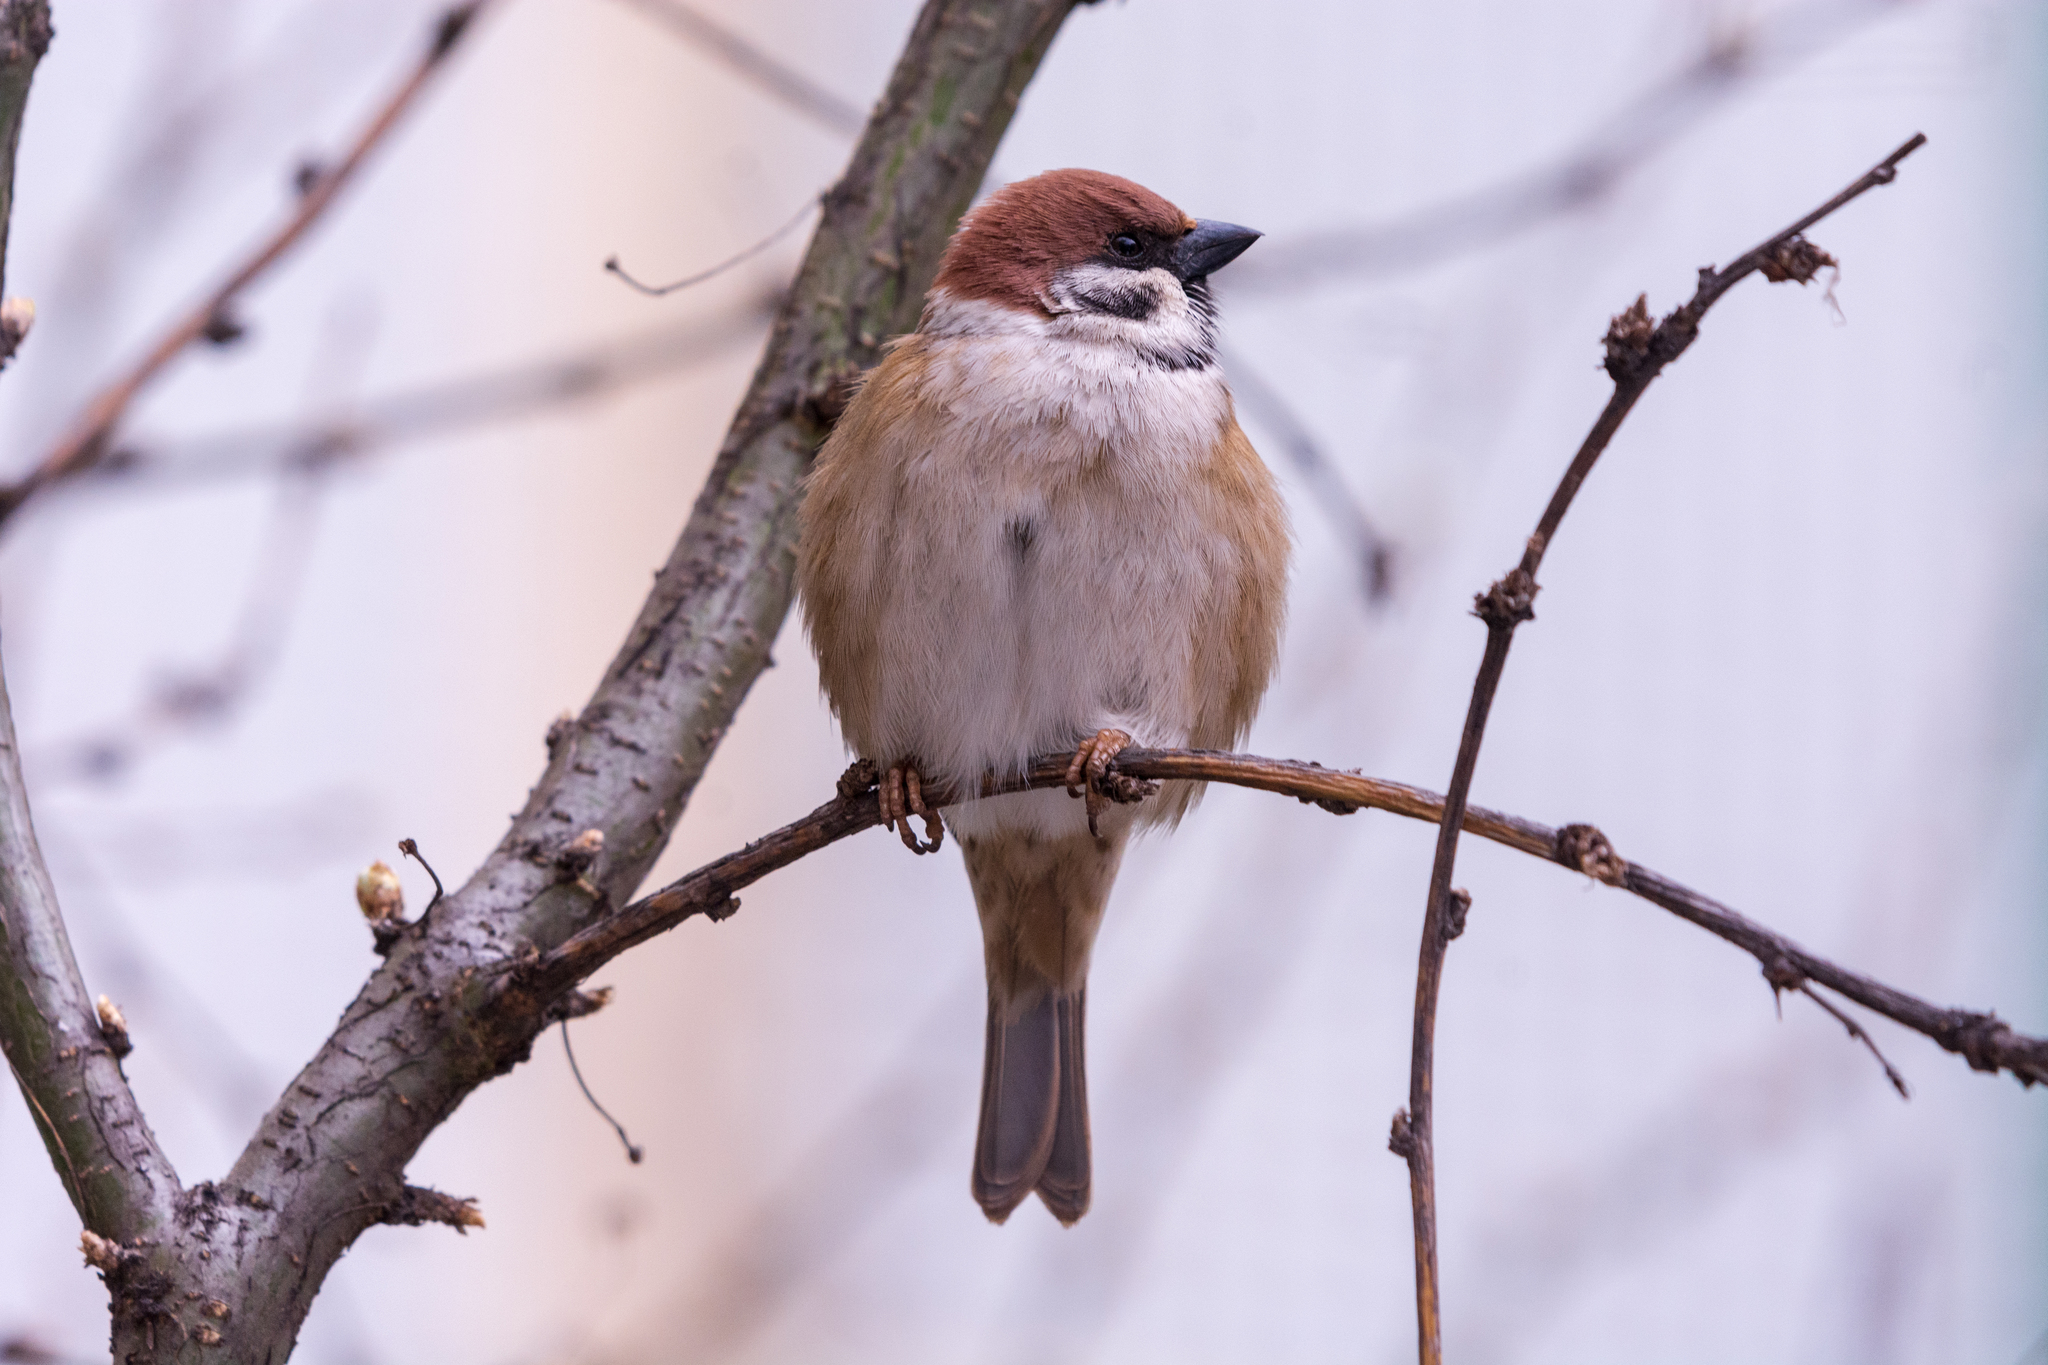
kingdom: Animalia
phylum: Chordata
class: Aves
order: Passeriformes
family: Passeridae
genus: Passer
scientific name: Passer montanus
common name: Eurasian tree sparrow
